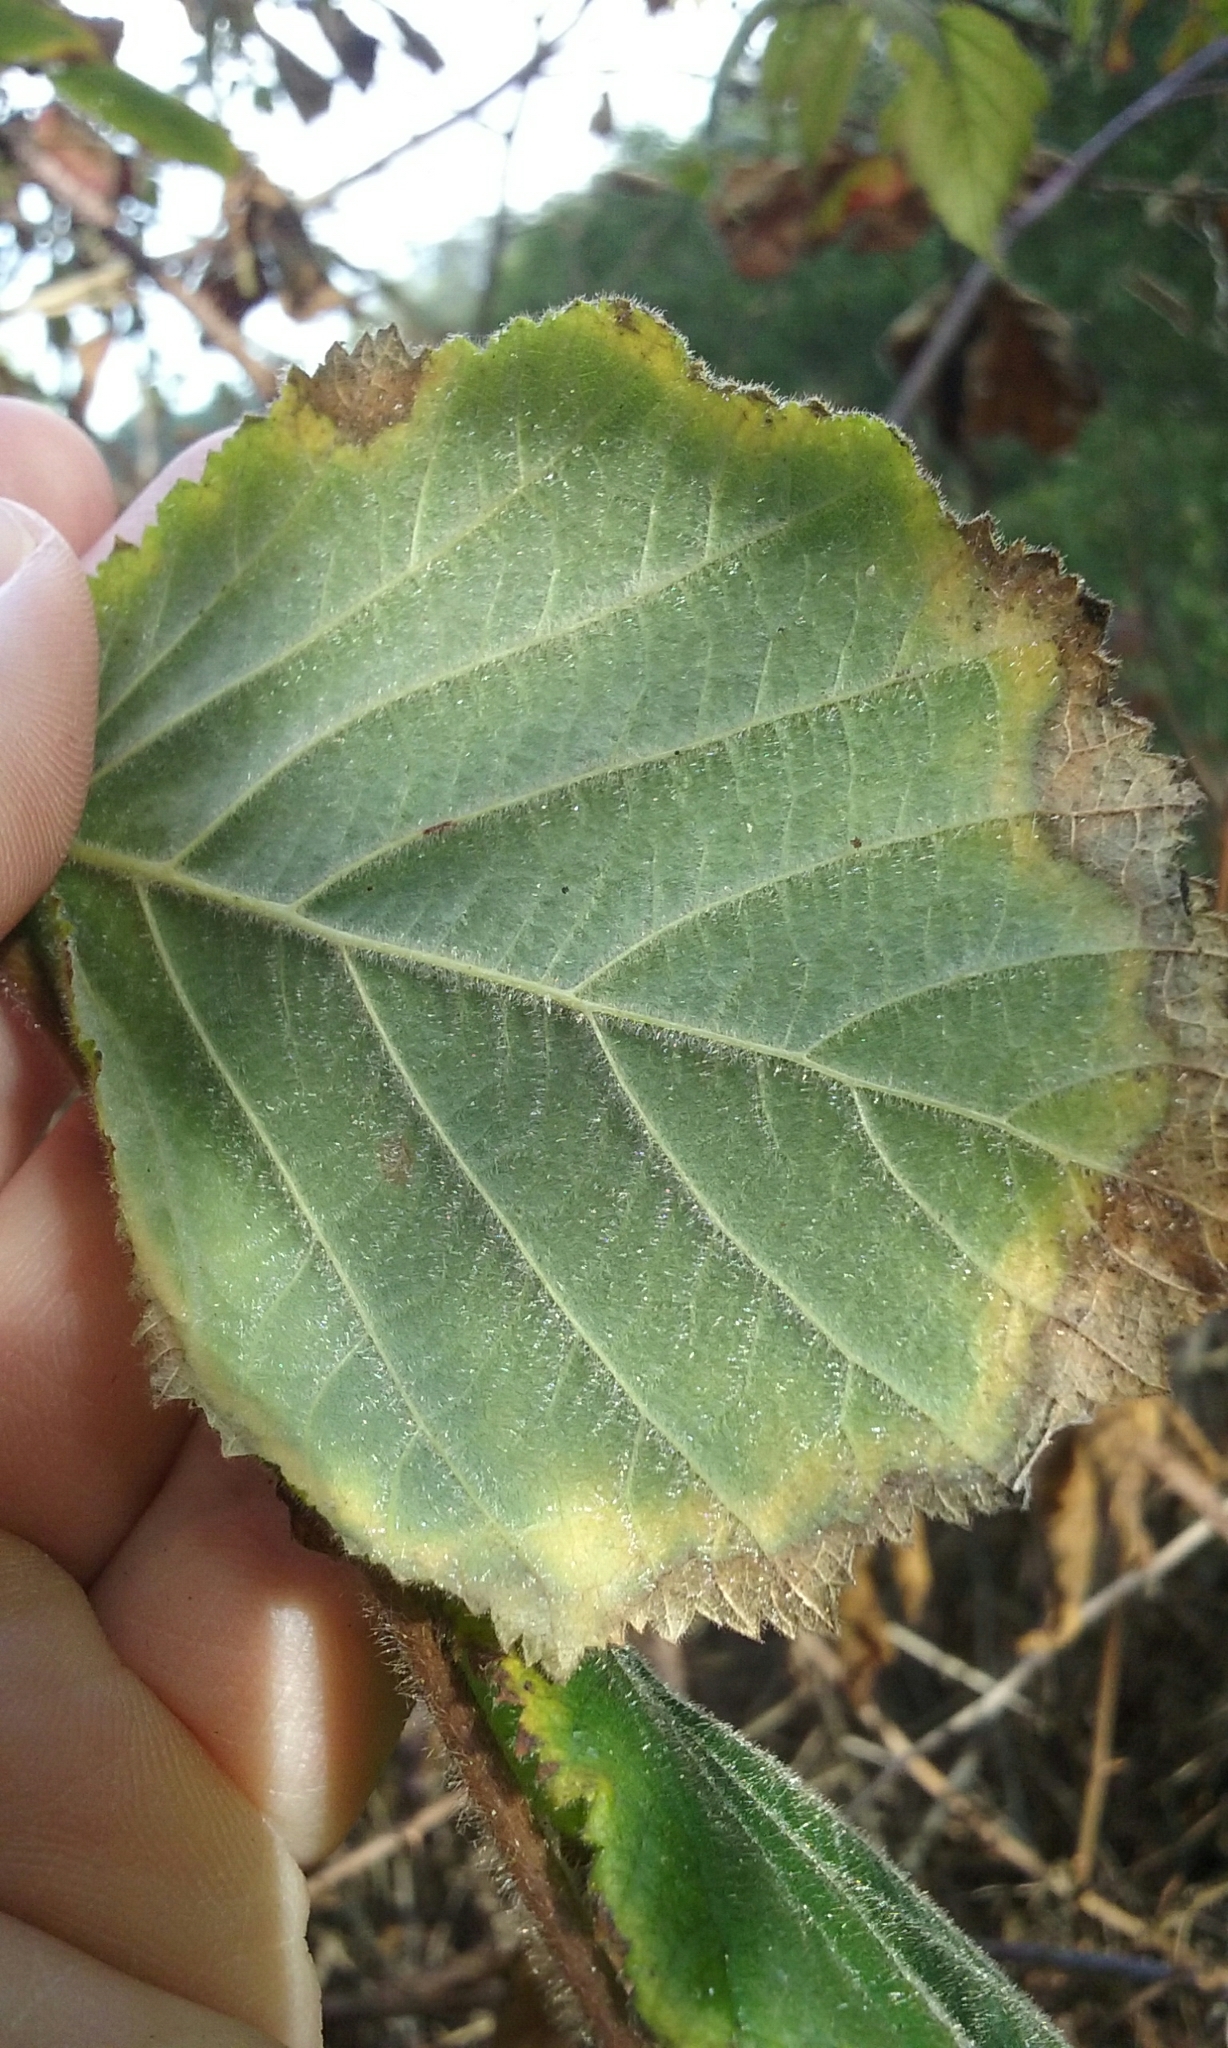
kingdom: Plantae
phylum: Tracheophyta
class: Magnoliopsida
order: Fagales
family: Betulaceae
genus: Corylus
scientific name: Corylus cornuta
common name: Beaked hazel
